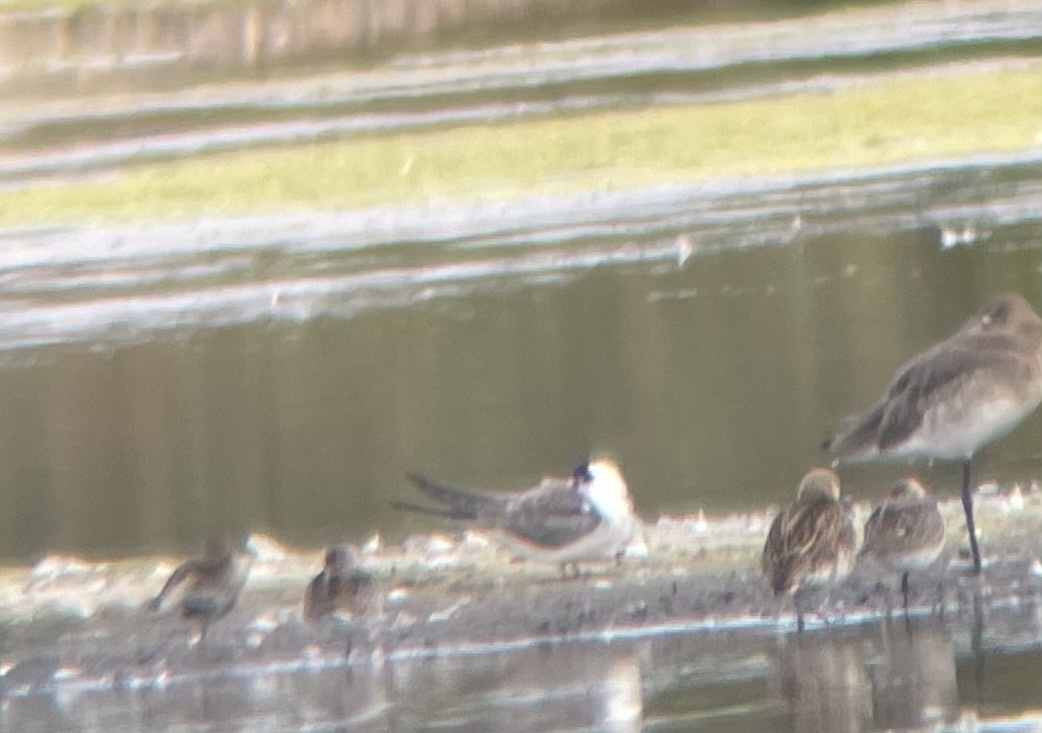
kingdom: Animalia
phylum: Chordata
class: Aves
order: Charadriiformes
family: Laridae
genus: Chlidonias
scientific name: Chlidonias niger
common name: Black tern
